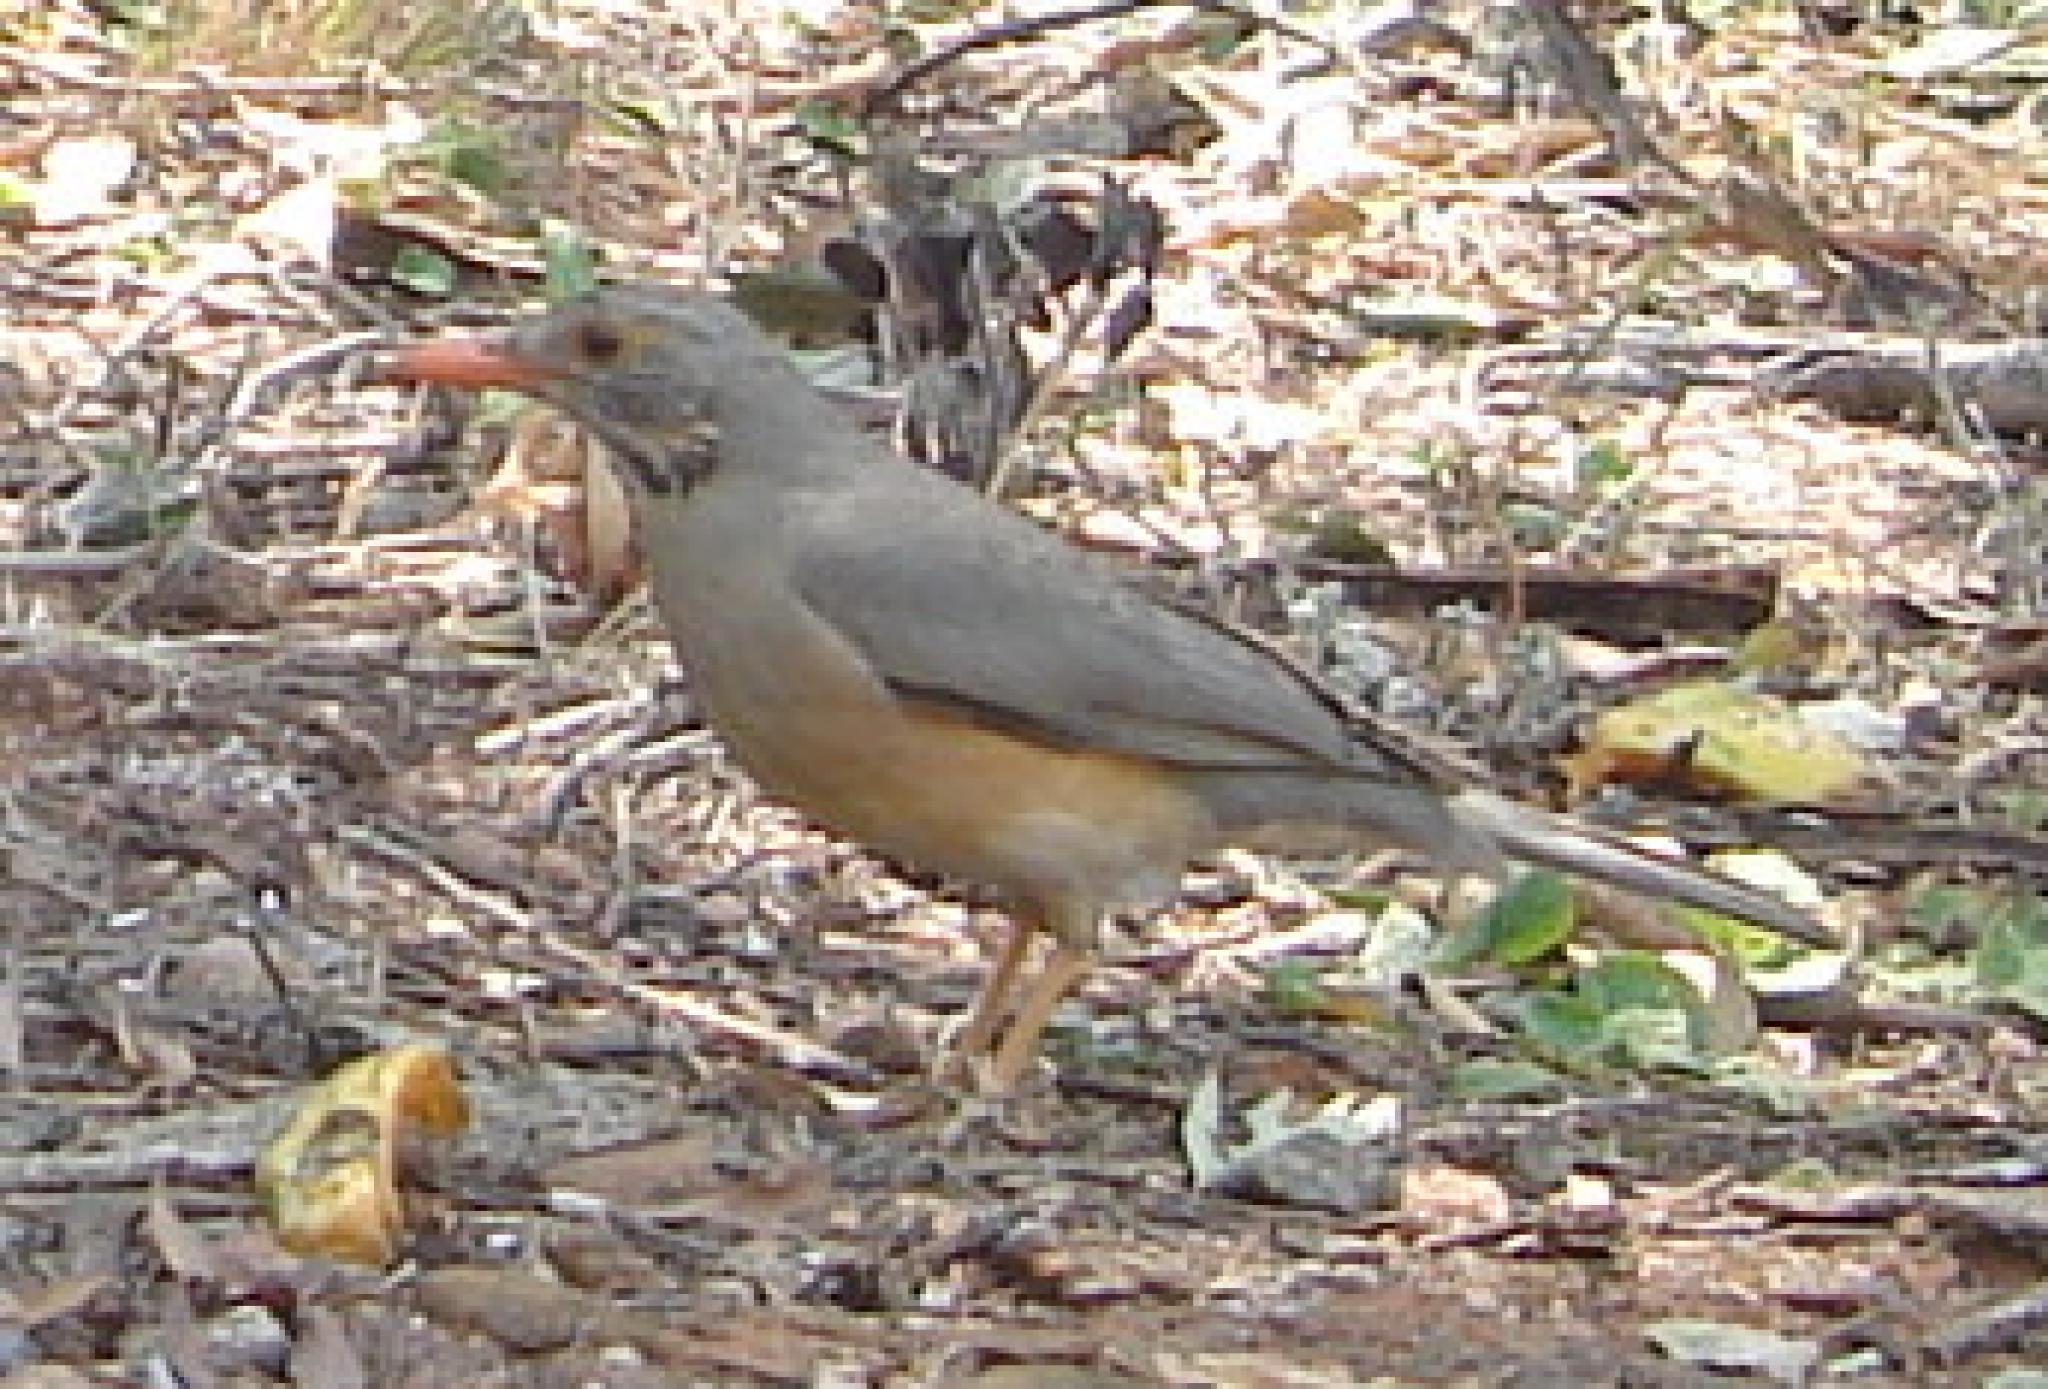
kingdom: Animalia
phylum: Chordata
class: Aves
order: Passeriformes
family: Turdidae
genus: Turdus
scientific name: Turdus libonyana
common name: Kurrichane thrush
